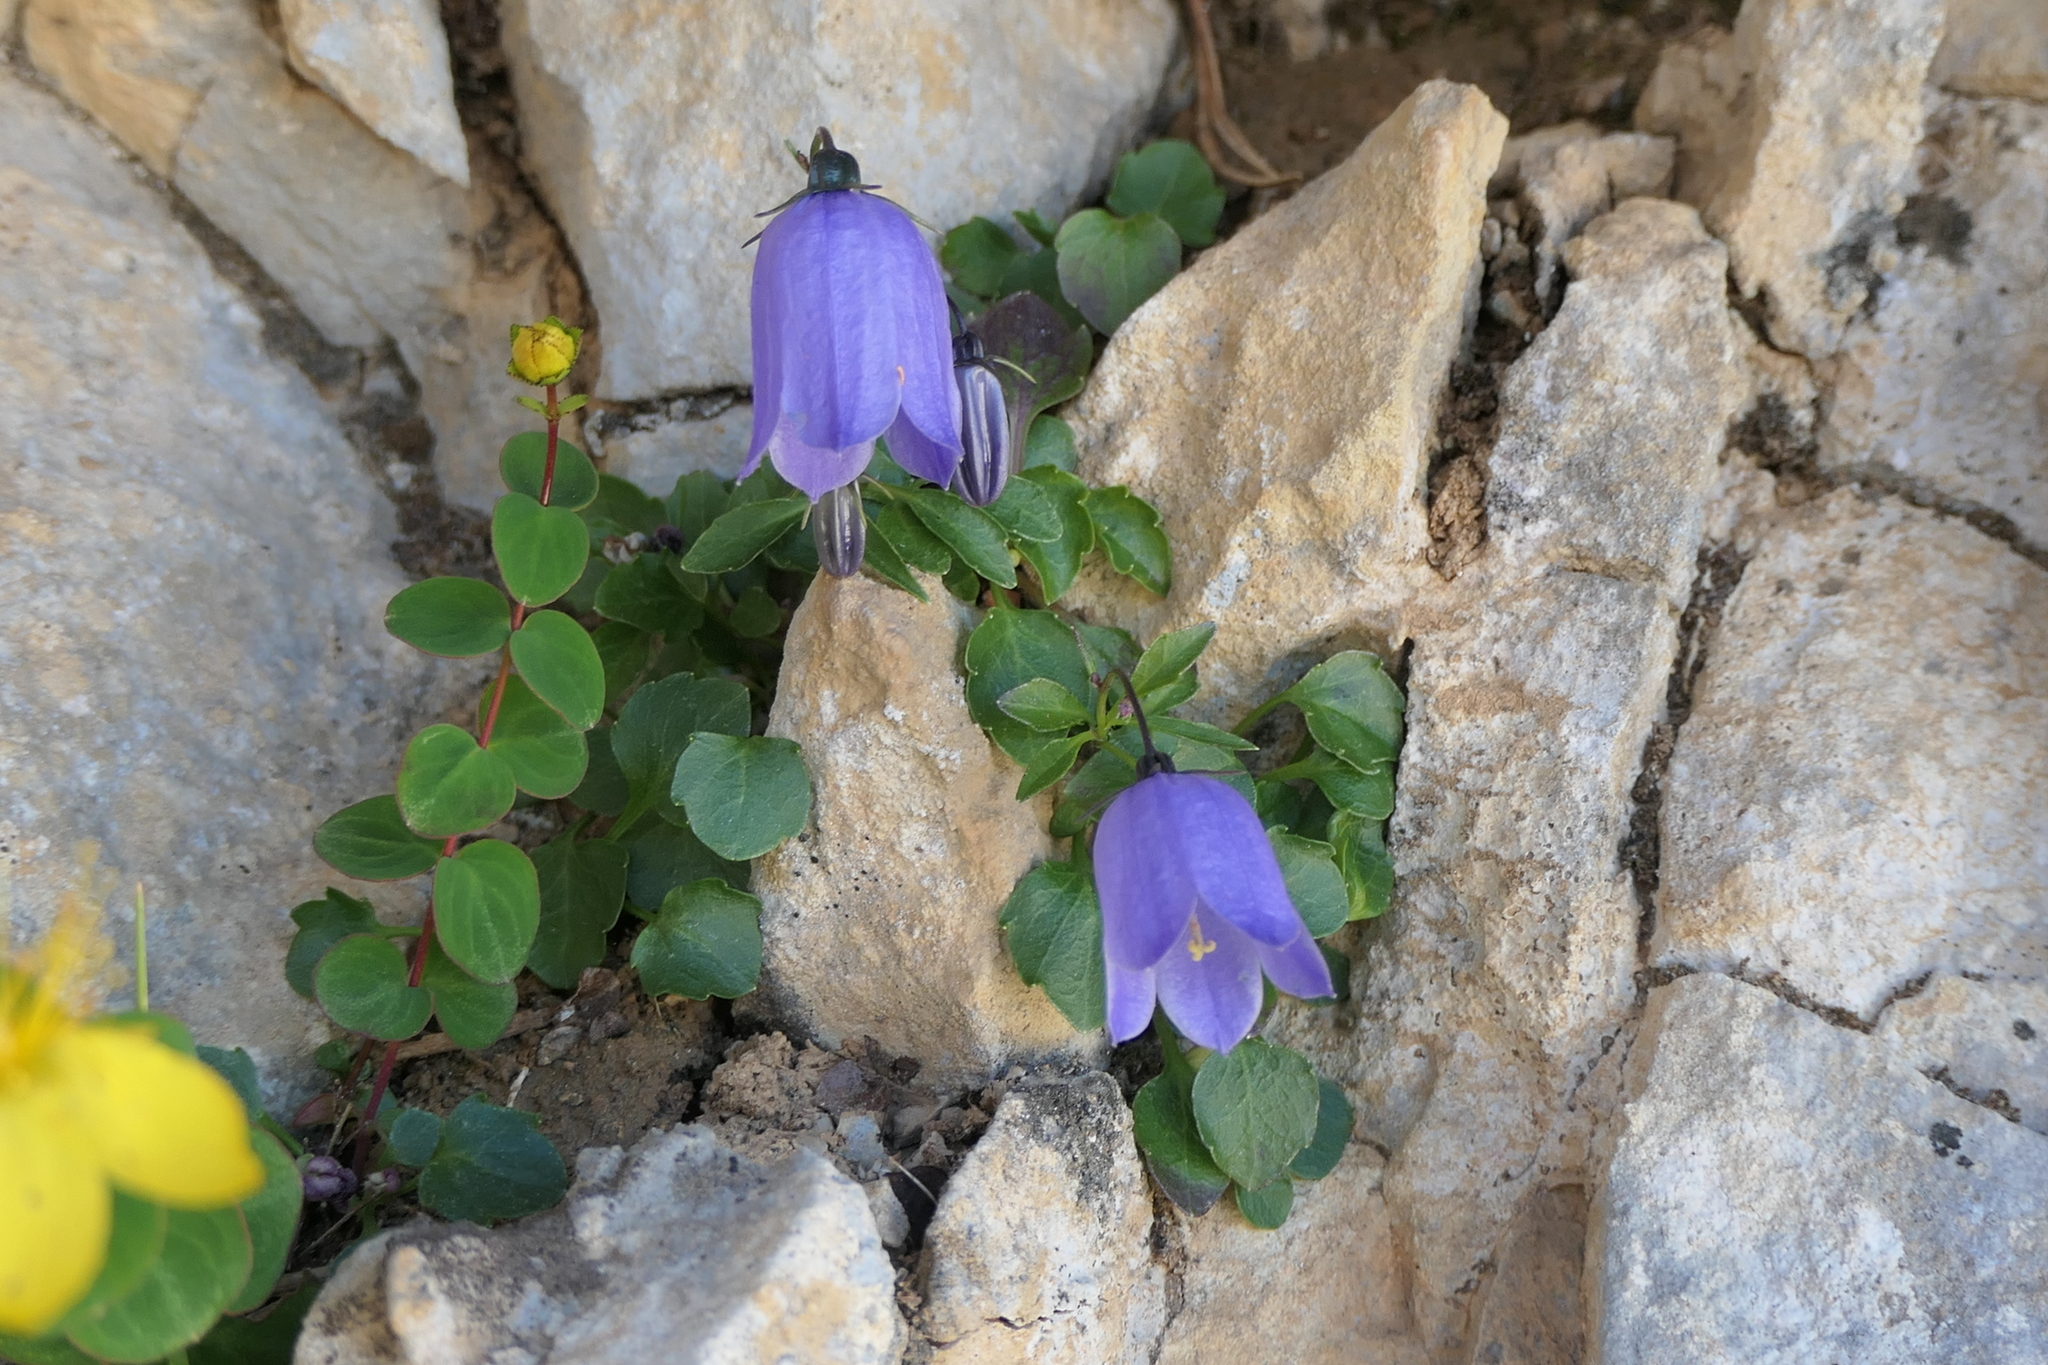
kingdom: Plantae
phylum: Tracheophyta
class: Magnoliopsida
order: Asterales
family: Campanulaceae
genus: Campanula
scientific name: Campanula cochleariifolia
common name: Fairies'-thimbles
